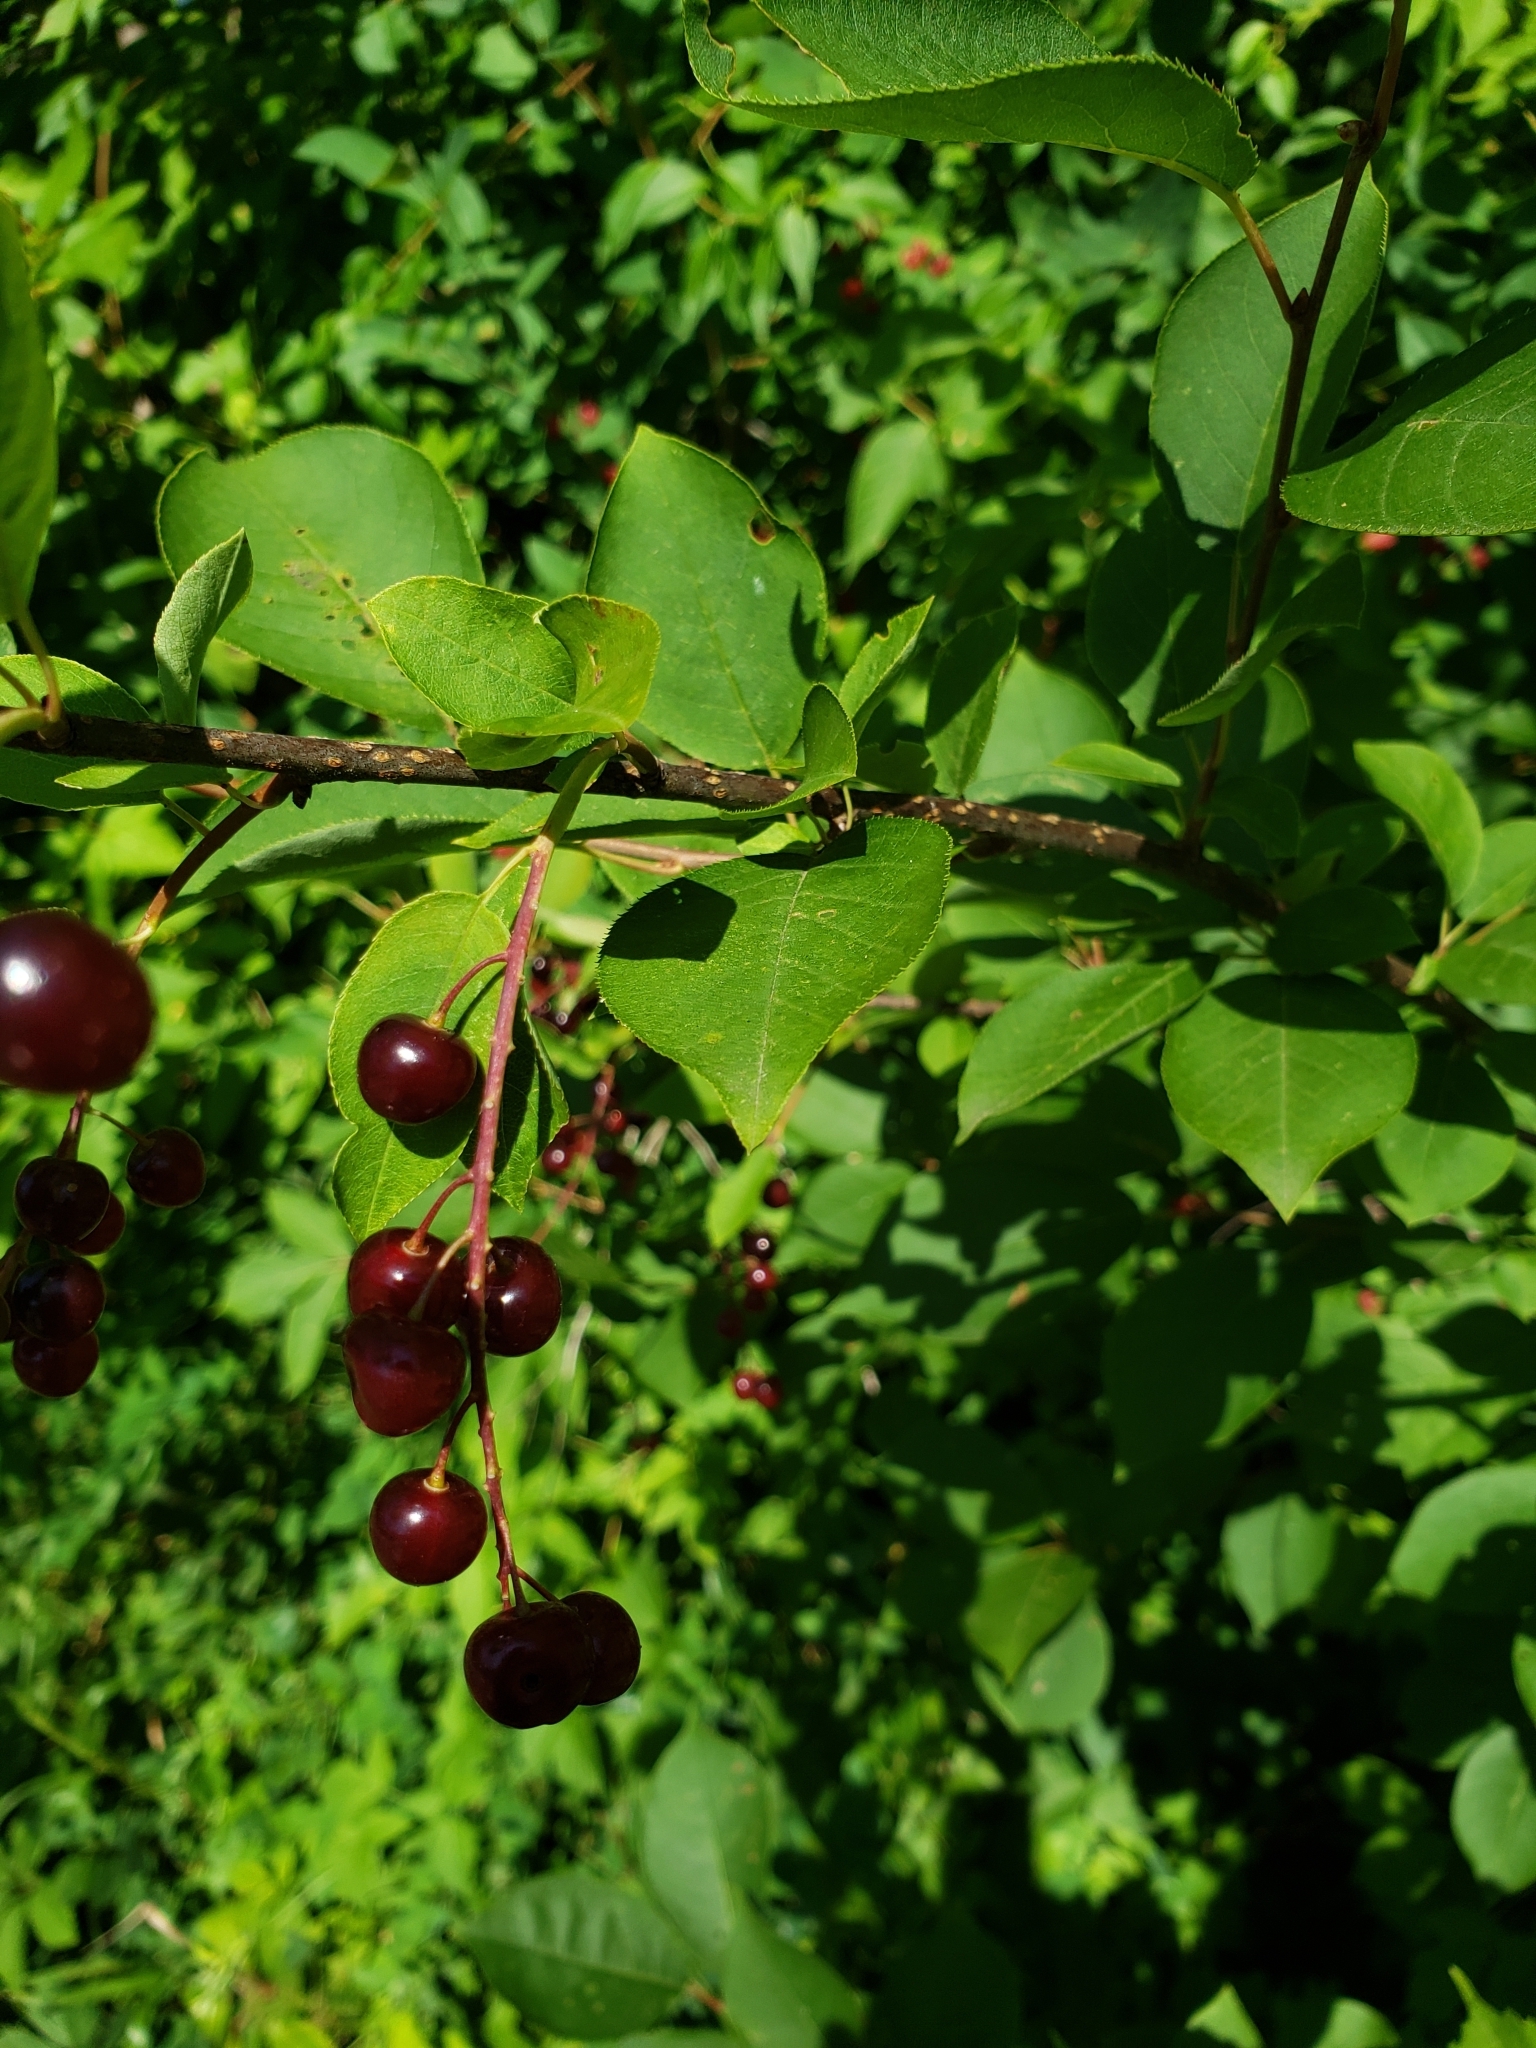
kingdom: Plantae
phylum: Tracheophyta
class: Magnoliopsida
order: Rosales
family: Rosaceae
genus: Prunus
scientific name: Prunus virginiana
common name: Chokecherry
